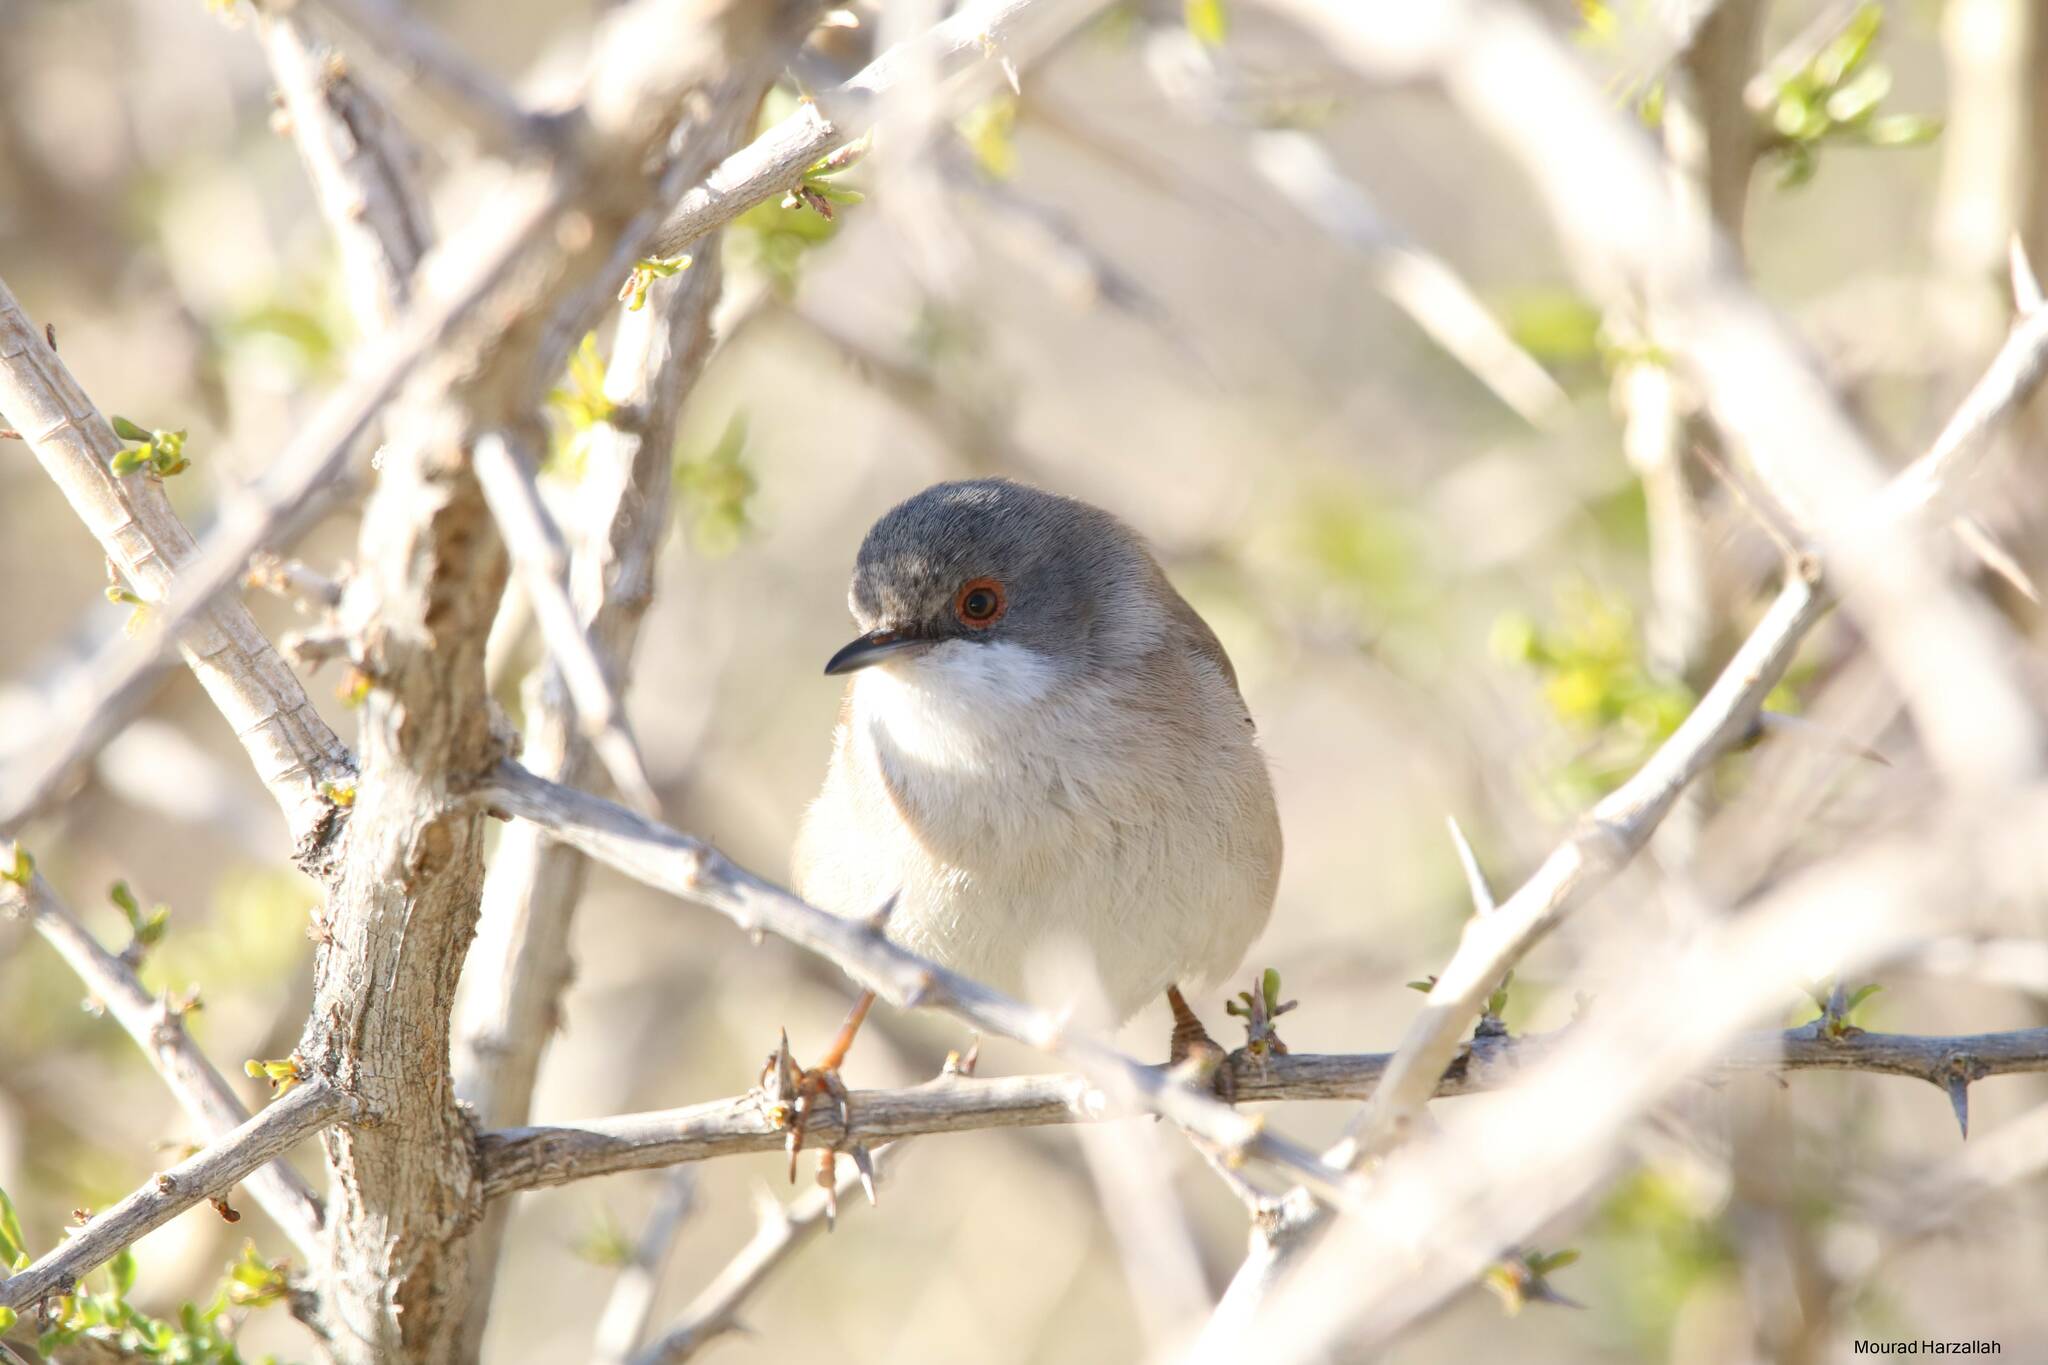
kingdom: Animalia
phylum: Chordata
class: Aves
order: Passeriformes
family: Sylviidae
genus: Curruca
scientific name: Curruca melanocephala
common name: Sardinian warbler
